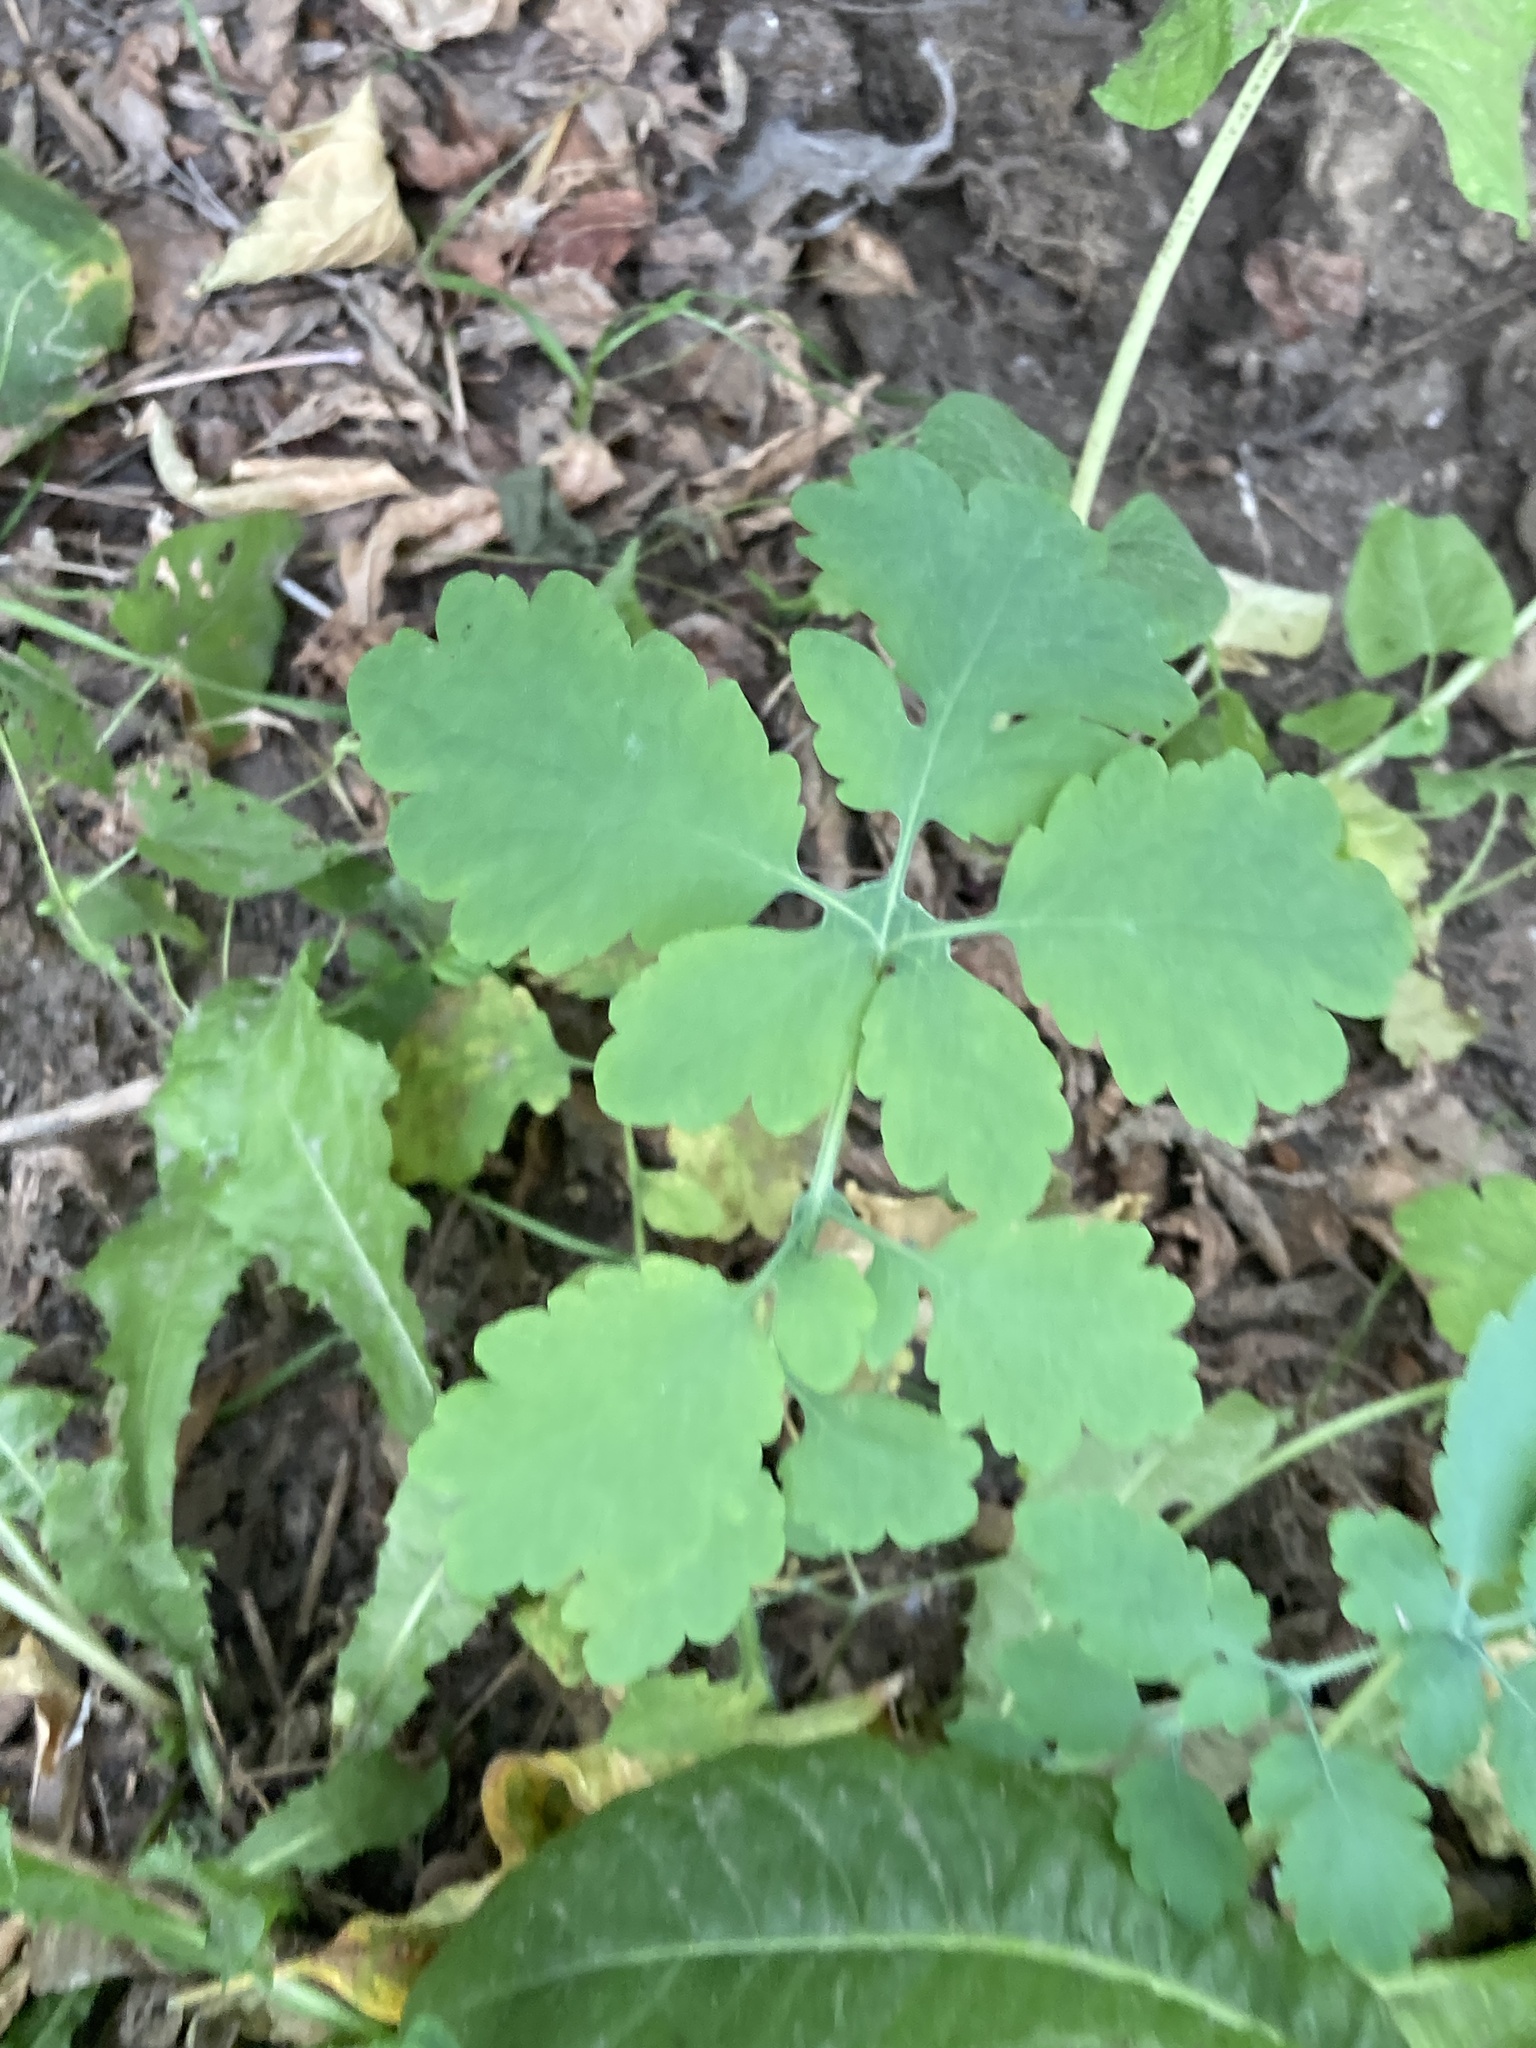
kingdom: Plantae
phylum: Tracheophyta
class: Magnoliopsida
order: Ranunculales
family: Papaveraceae
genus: Chelidonium
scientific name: Chelidonium majus
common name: Greater celandine
